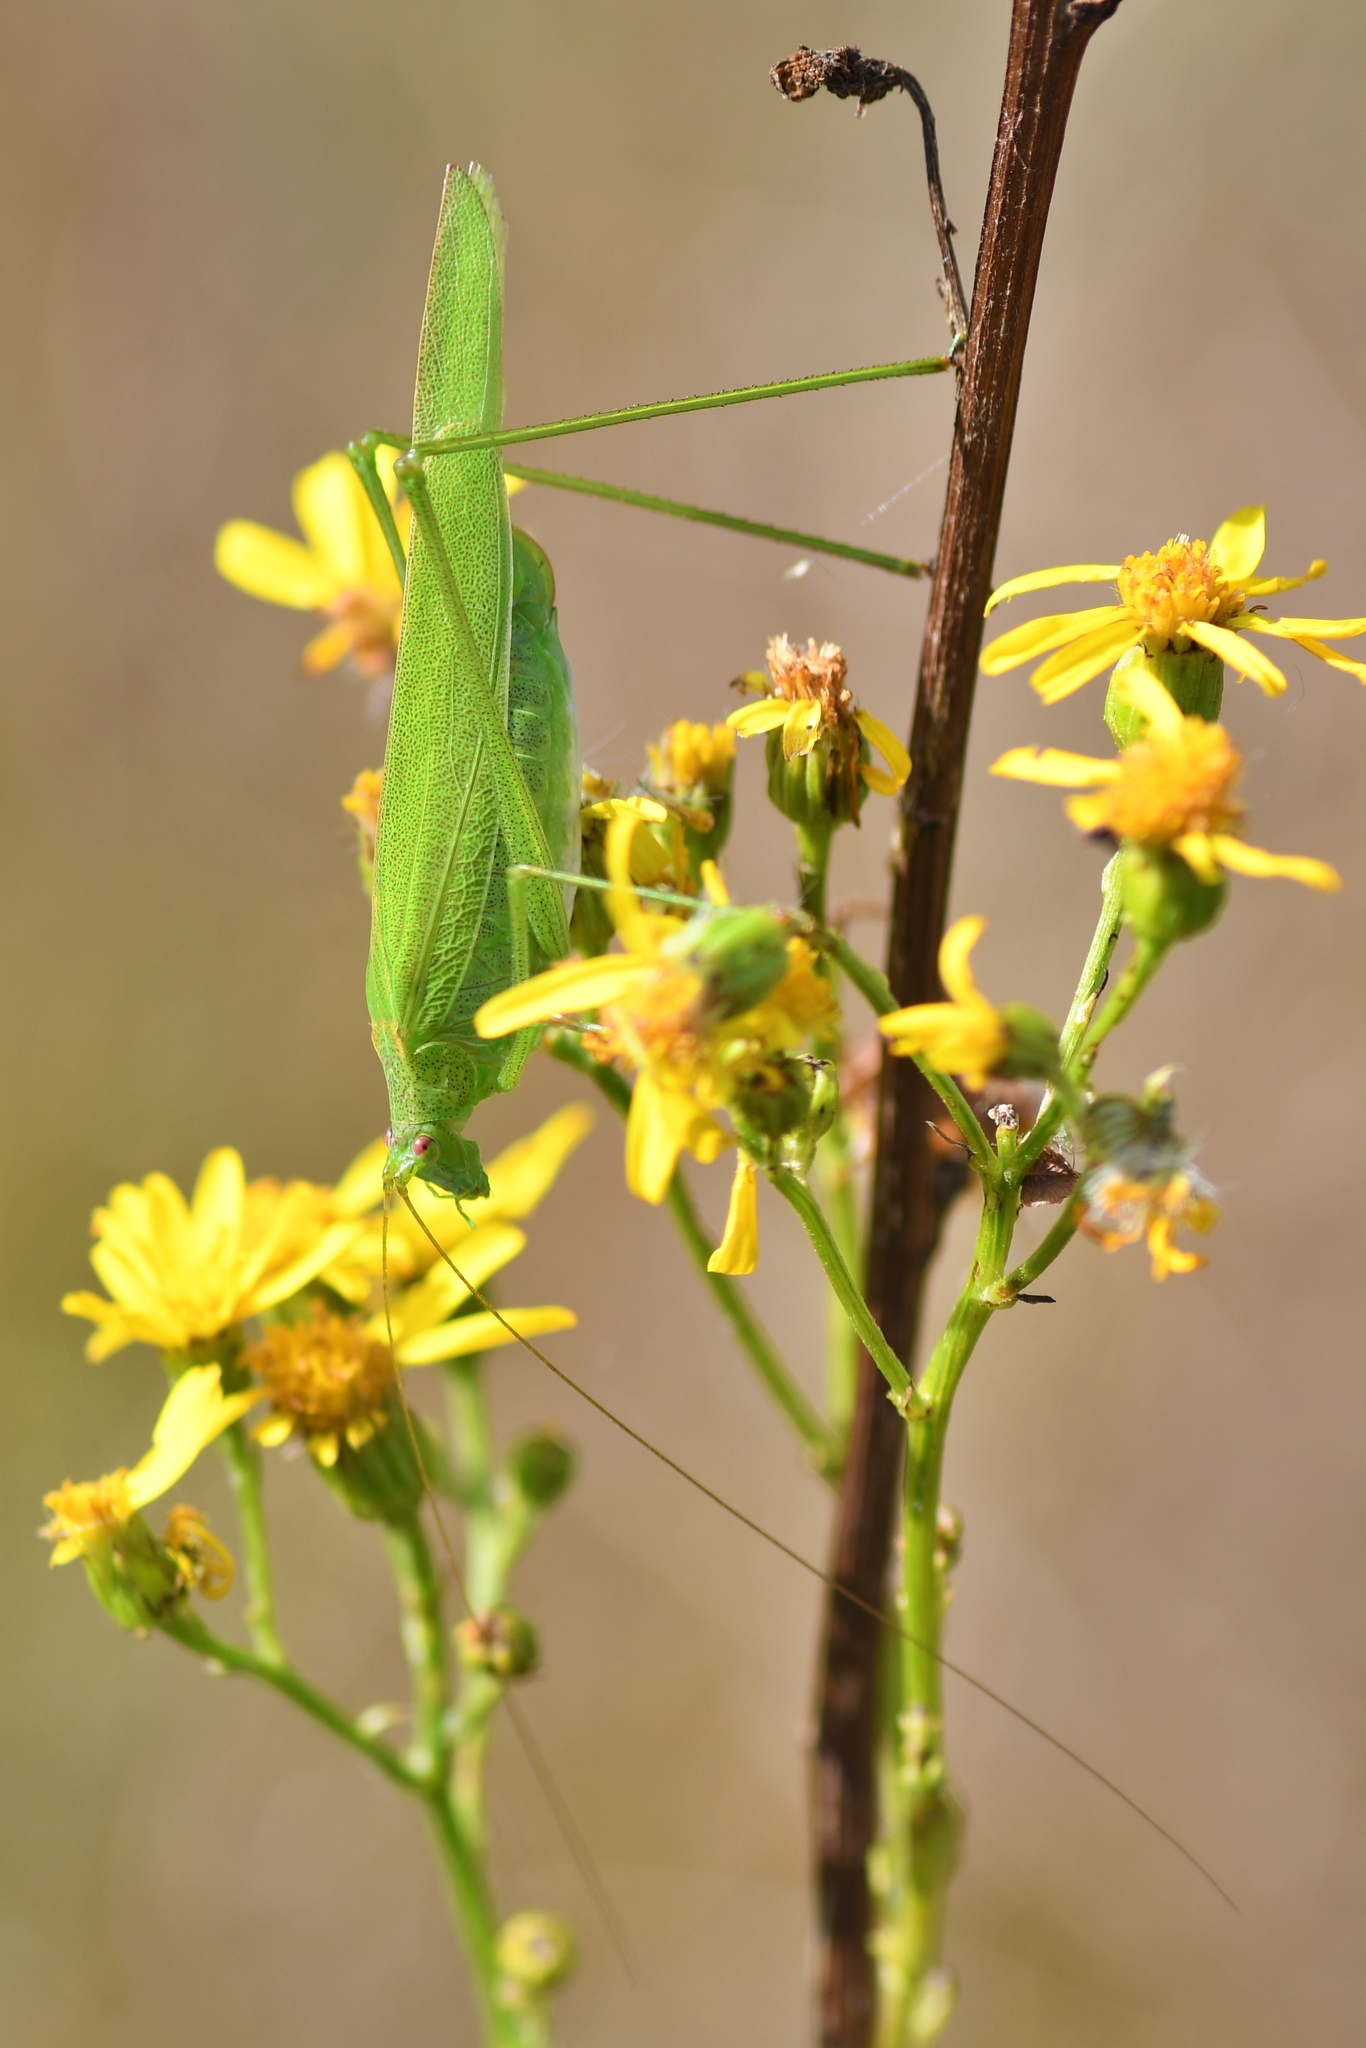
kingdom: Animalia
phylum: Arthropoda
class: Insecta
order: Orthoptera
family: Tettigoniidae
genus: Phaneroptera
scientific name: Phaneroptera falcata
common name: Sickle-bearing bush-cricket
